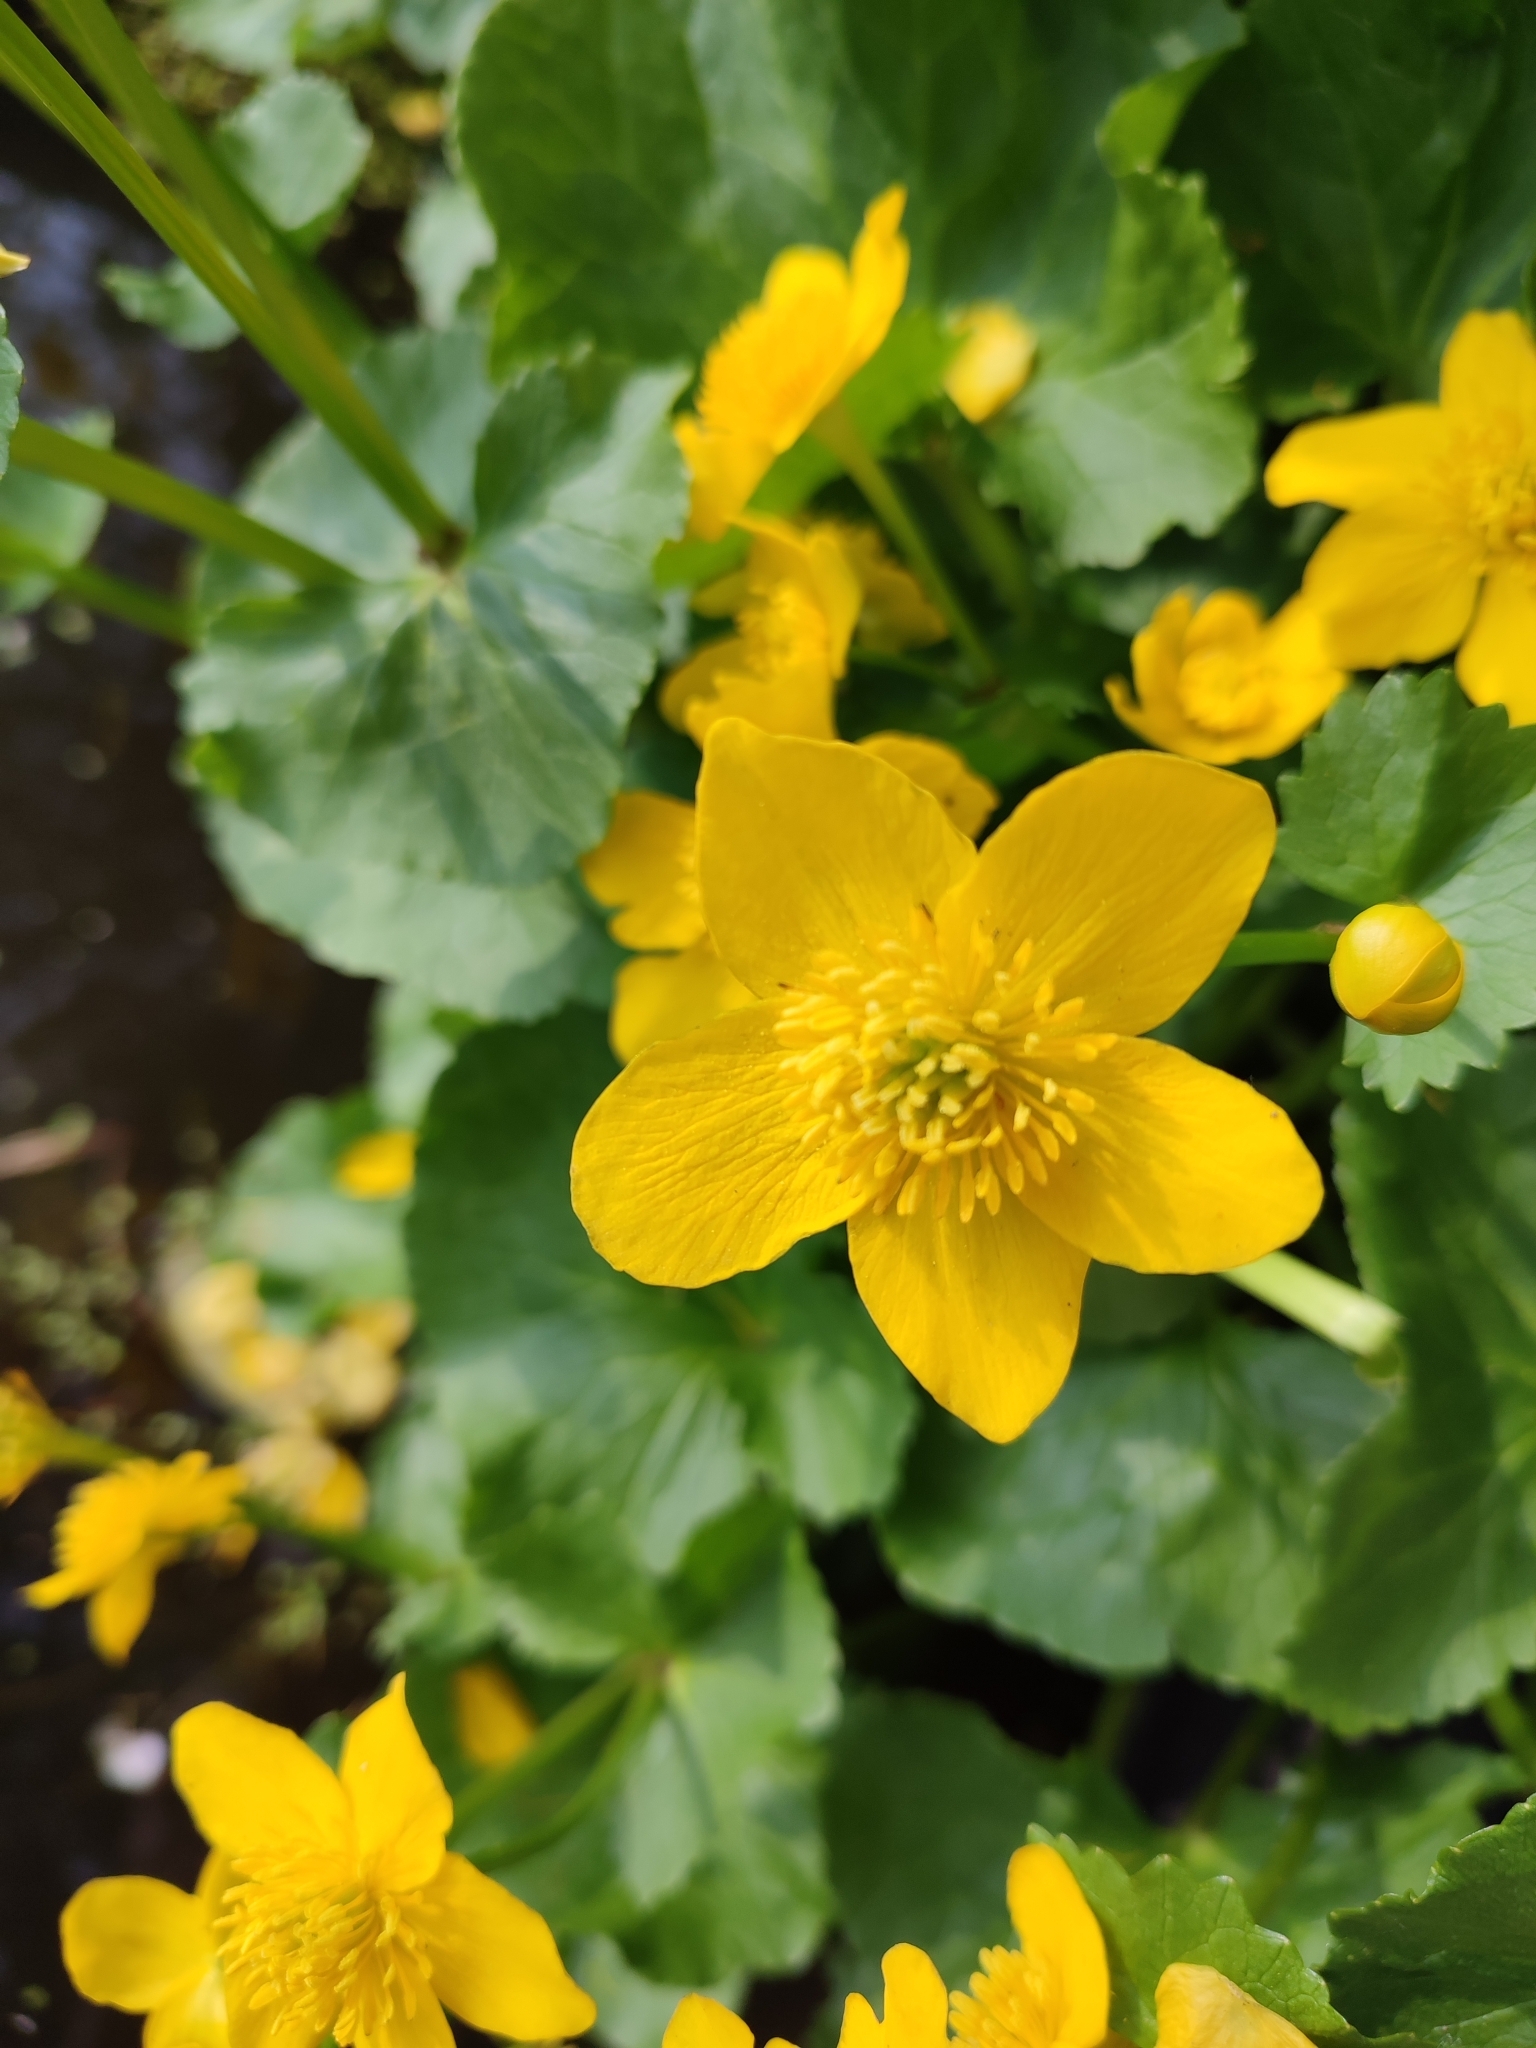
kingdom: Plantae
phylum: Tracheophyta
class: Magnoliopsida
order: Ranunculales
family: Ranunculaceae
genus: Caltha
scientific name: Caltha palustris
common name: Marsh marigold
